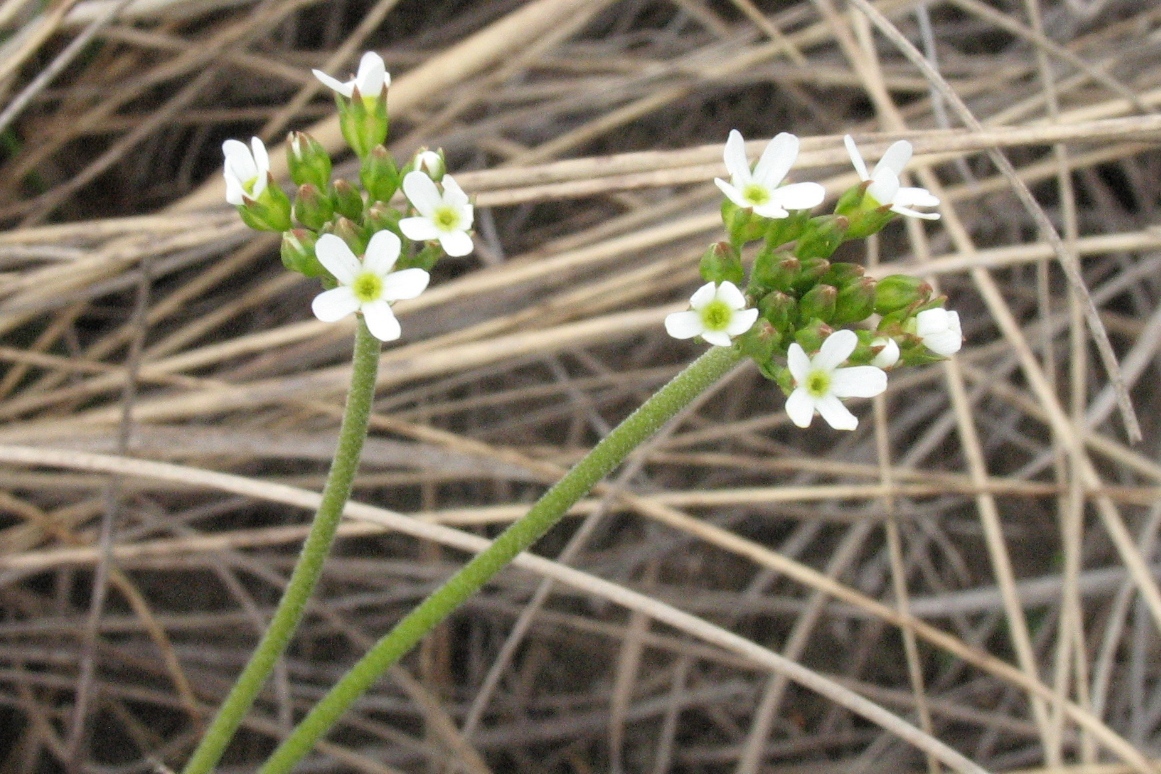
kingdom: Plantae
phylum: Tracheophyta
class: Magnoliopsida
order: Ericales
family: Primulaceae
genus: Androsace
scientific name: Androsace septentrionalis
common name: Hairy northern fairy-candelabra
